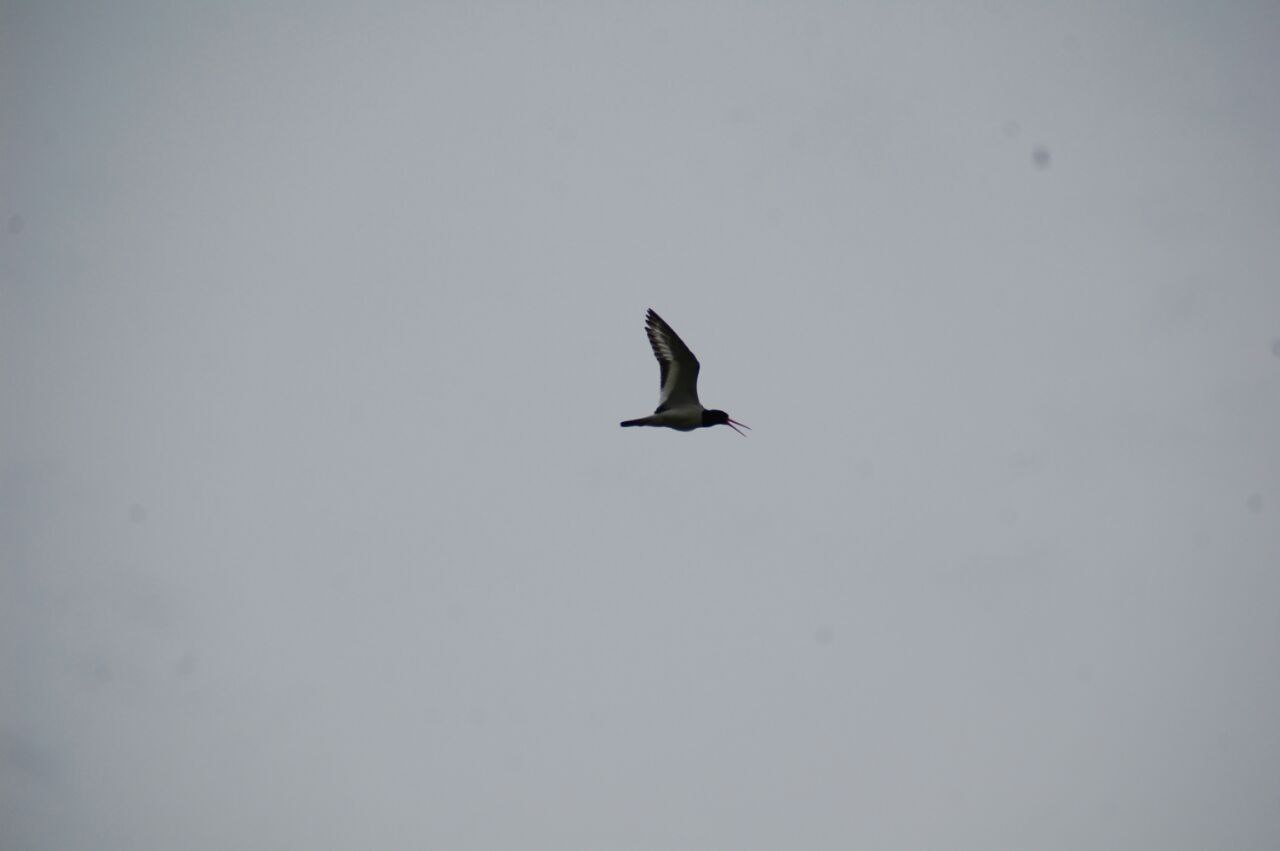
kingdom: Animalia
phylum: Chordata
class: Aves
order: Charadriiformes
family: Haematopodidae
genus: Haematopus
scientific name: Haematopus ostralegus
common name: Eurasian oystercatcher
